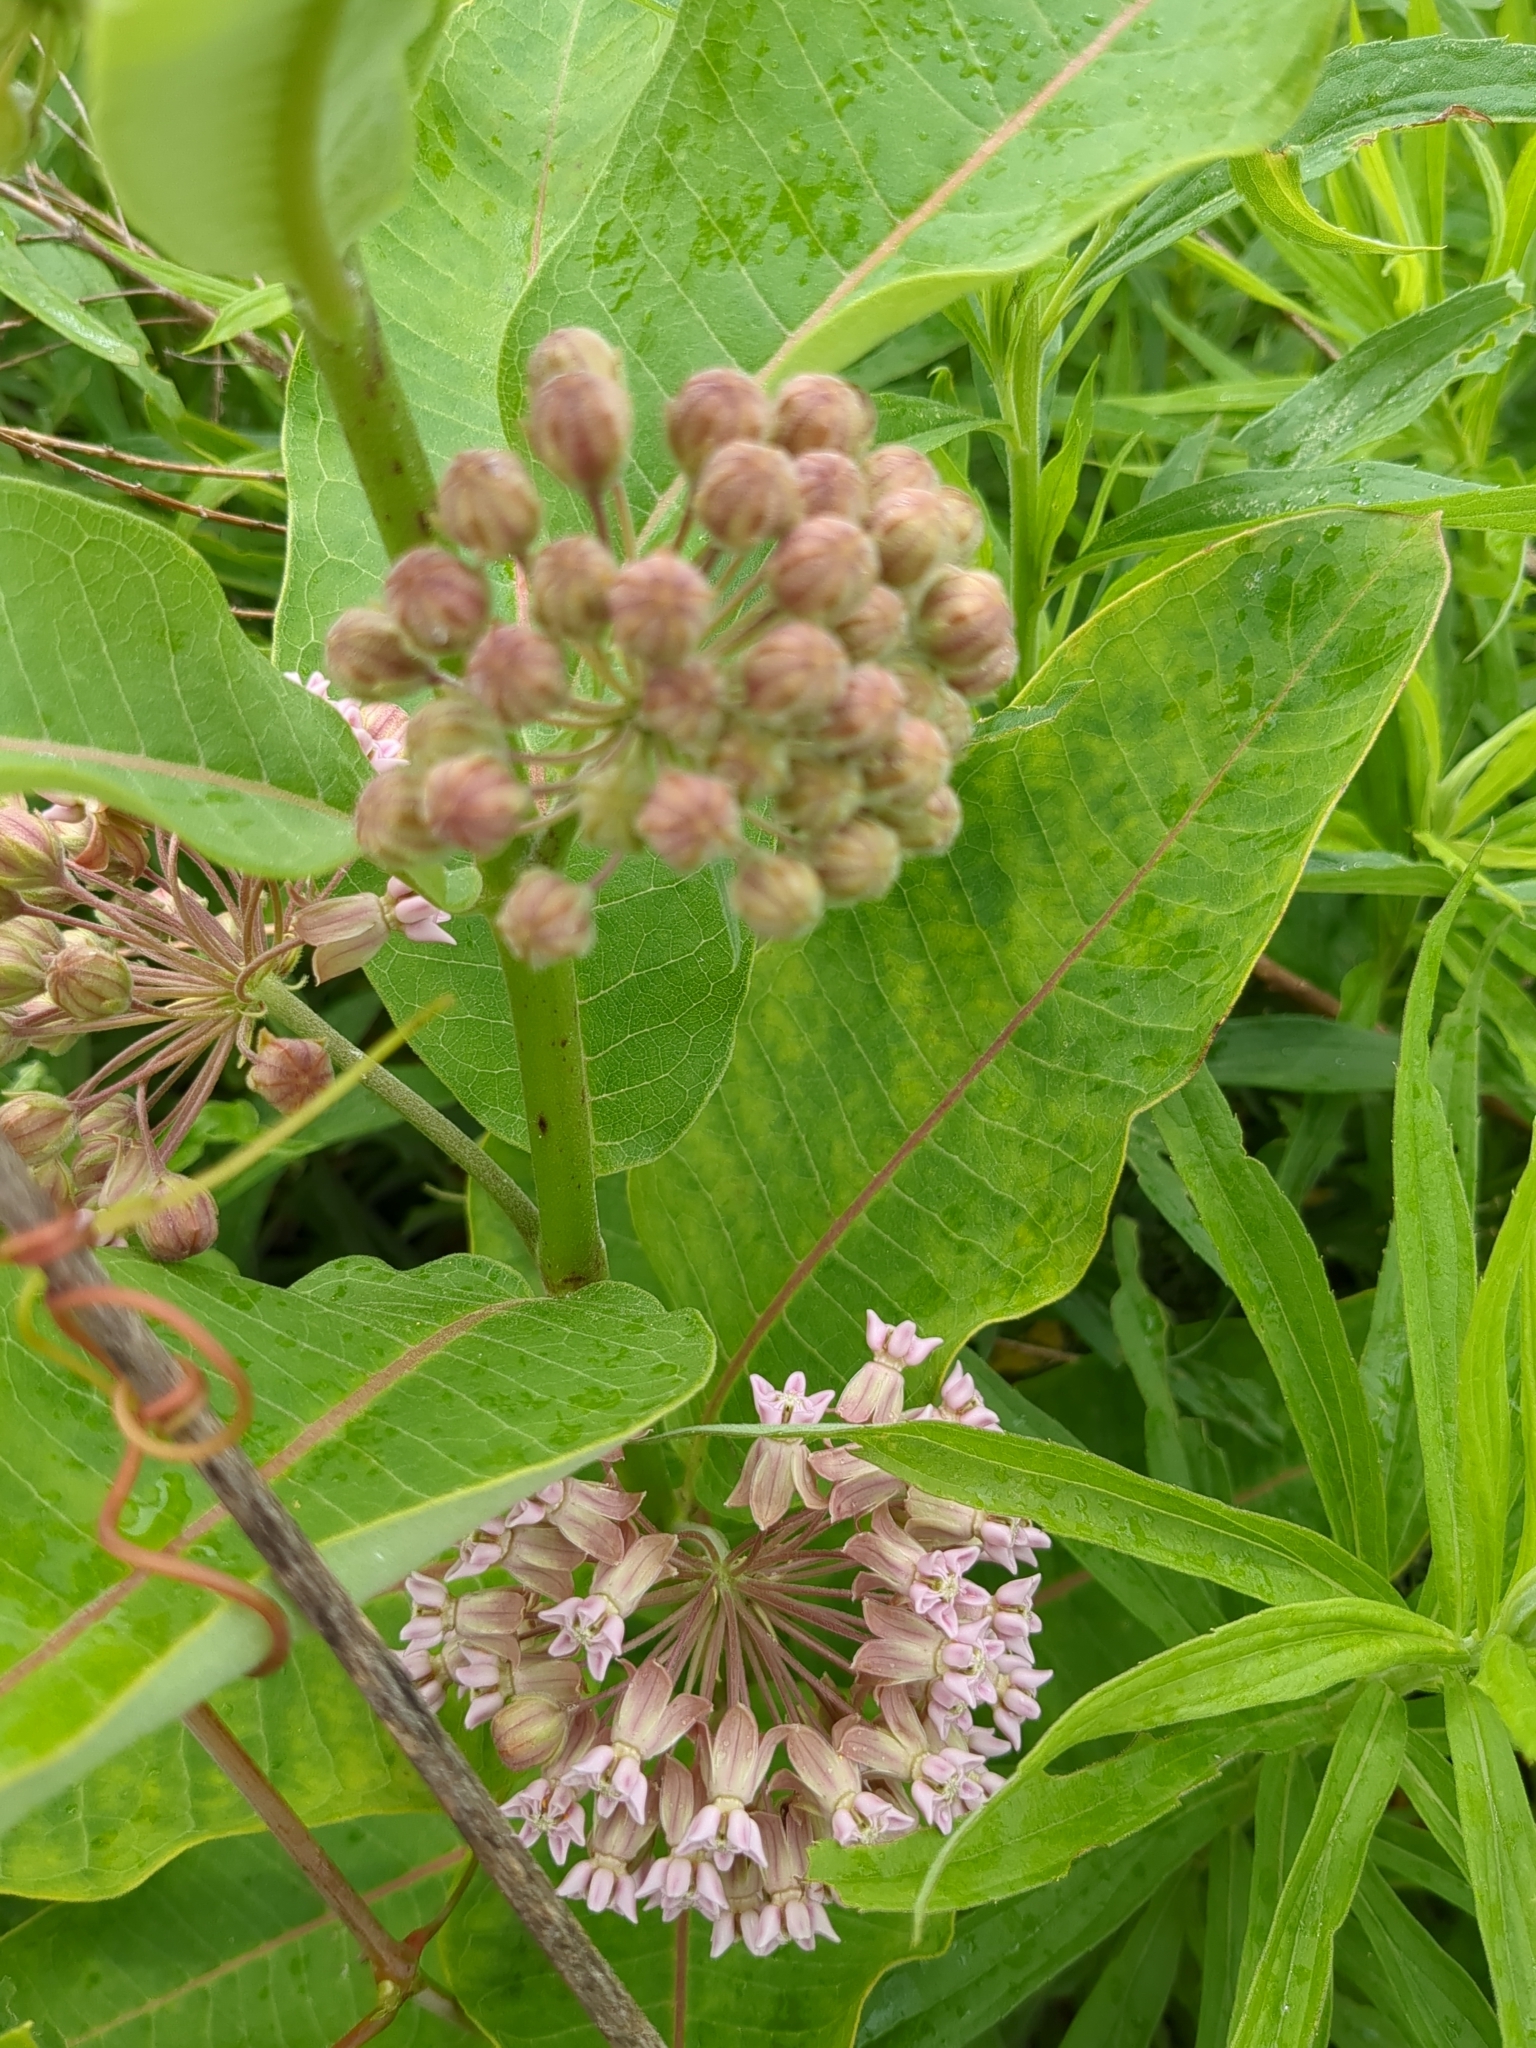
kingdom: Plantae
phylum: Tracheophyta
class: Magnoliopsida
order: Gentianales
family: Apocynaceae
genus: Asclepias
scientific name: Asclepias syriaca
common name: Common milkweed
